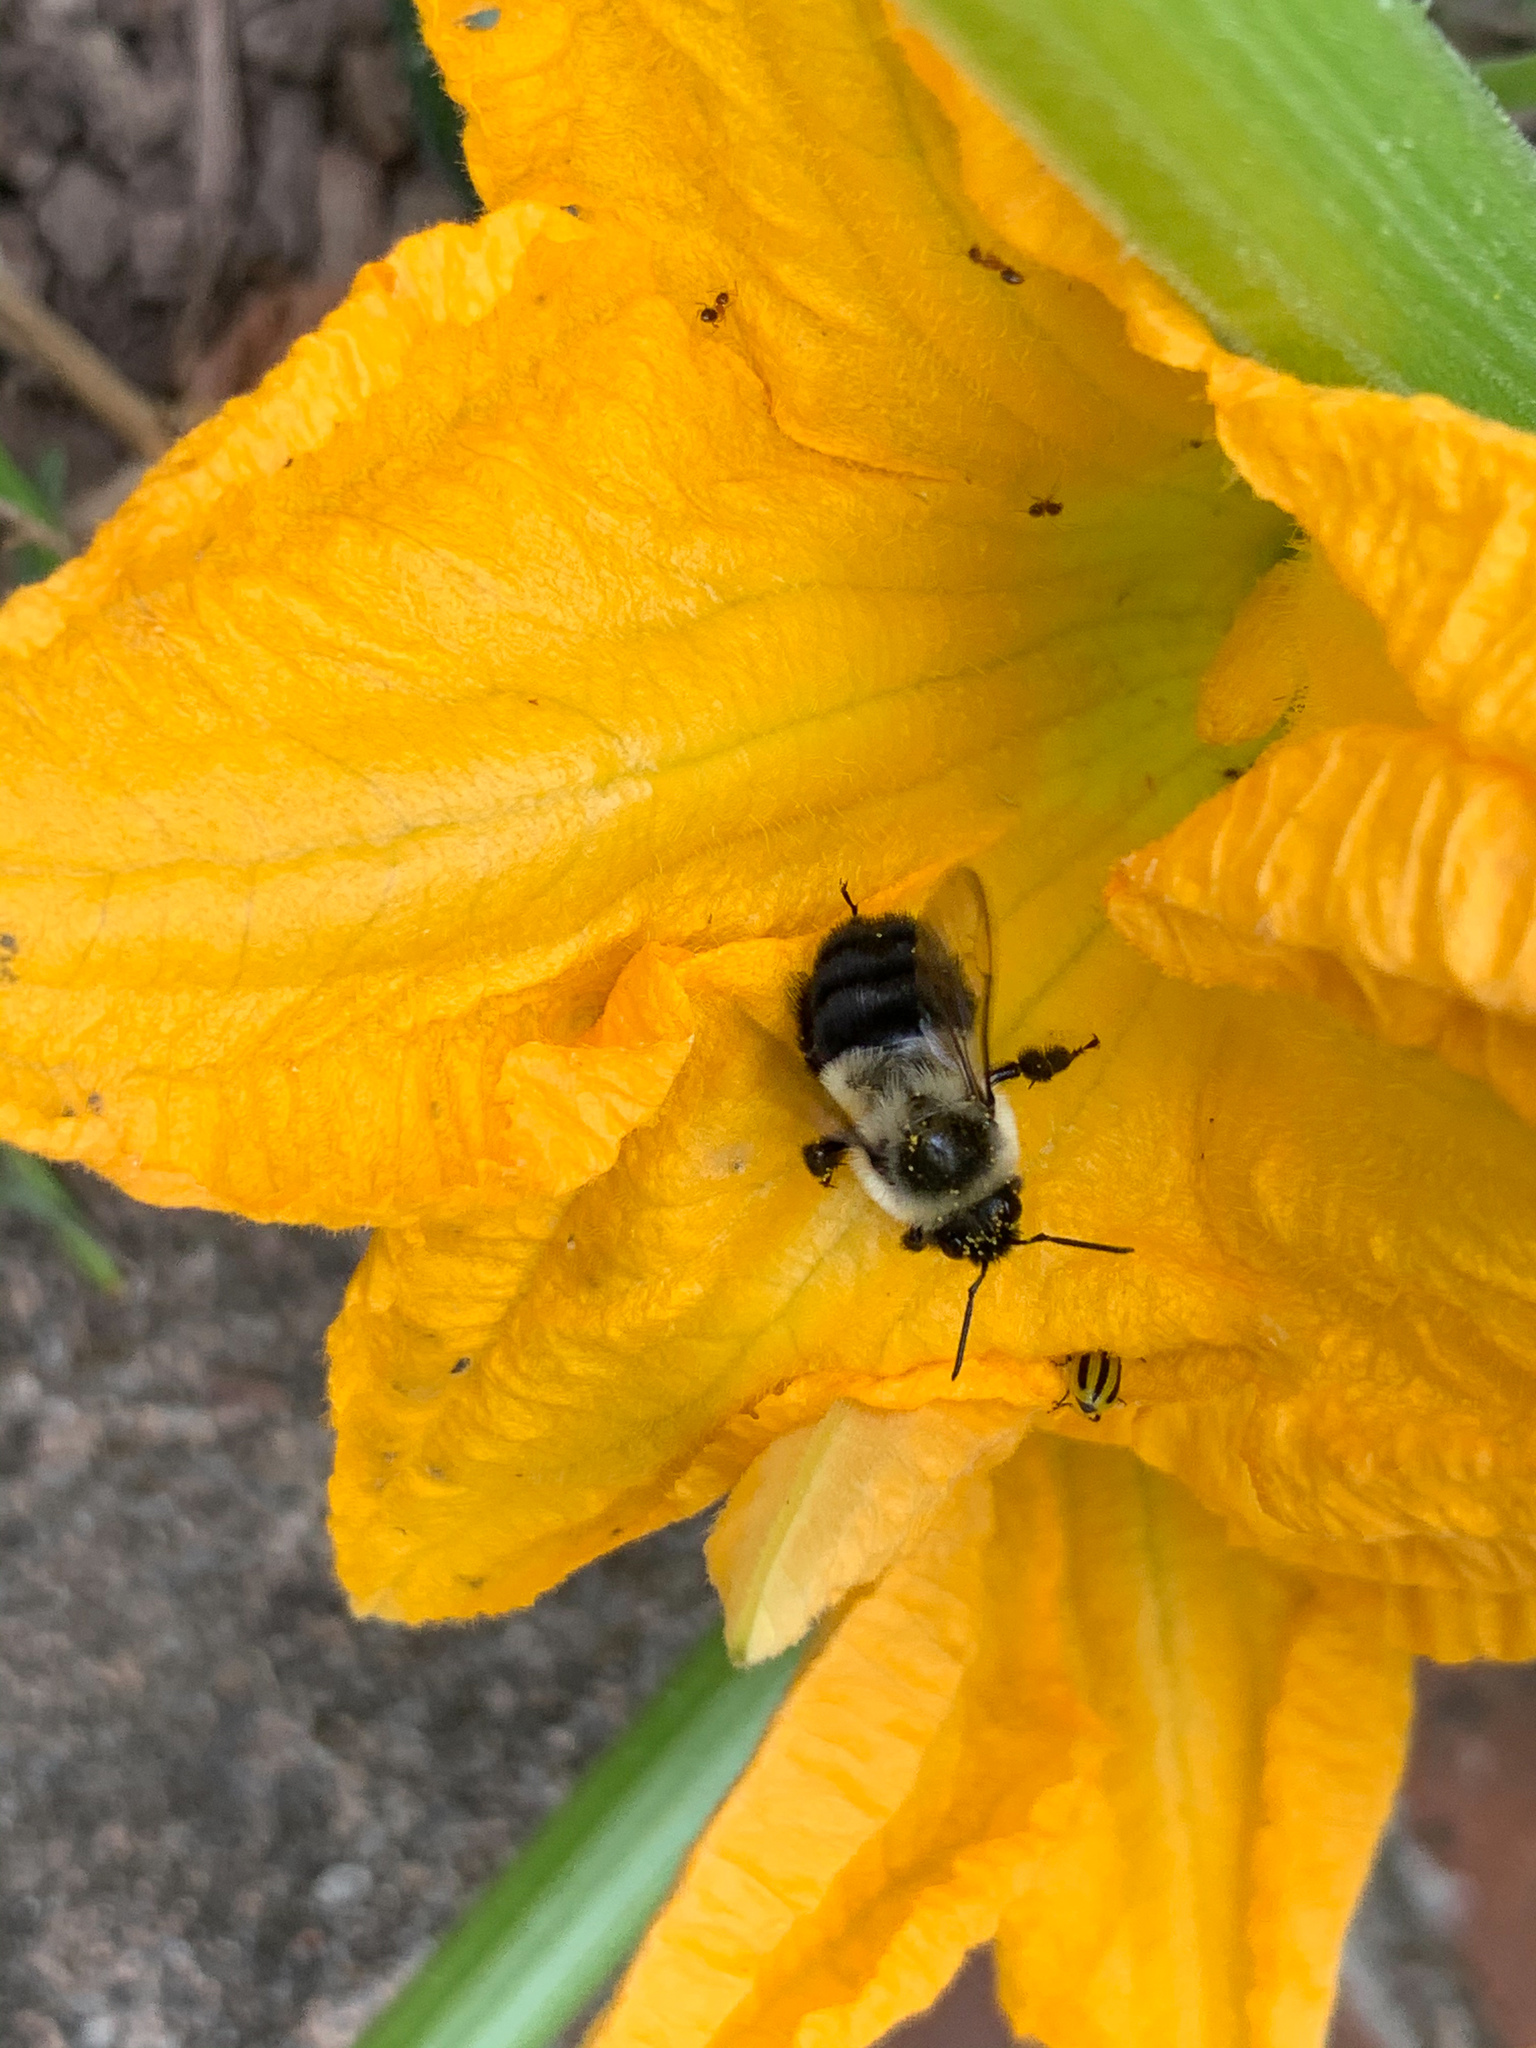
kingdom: Animalia
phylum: Arthropoda
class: Insecta
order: Hymenoptera
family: Apidae
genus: Bombus
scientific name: Bombus impatiens
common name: Common eastern bumble bee
